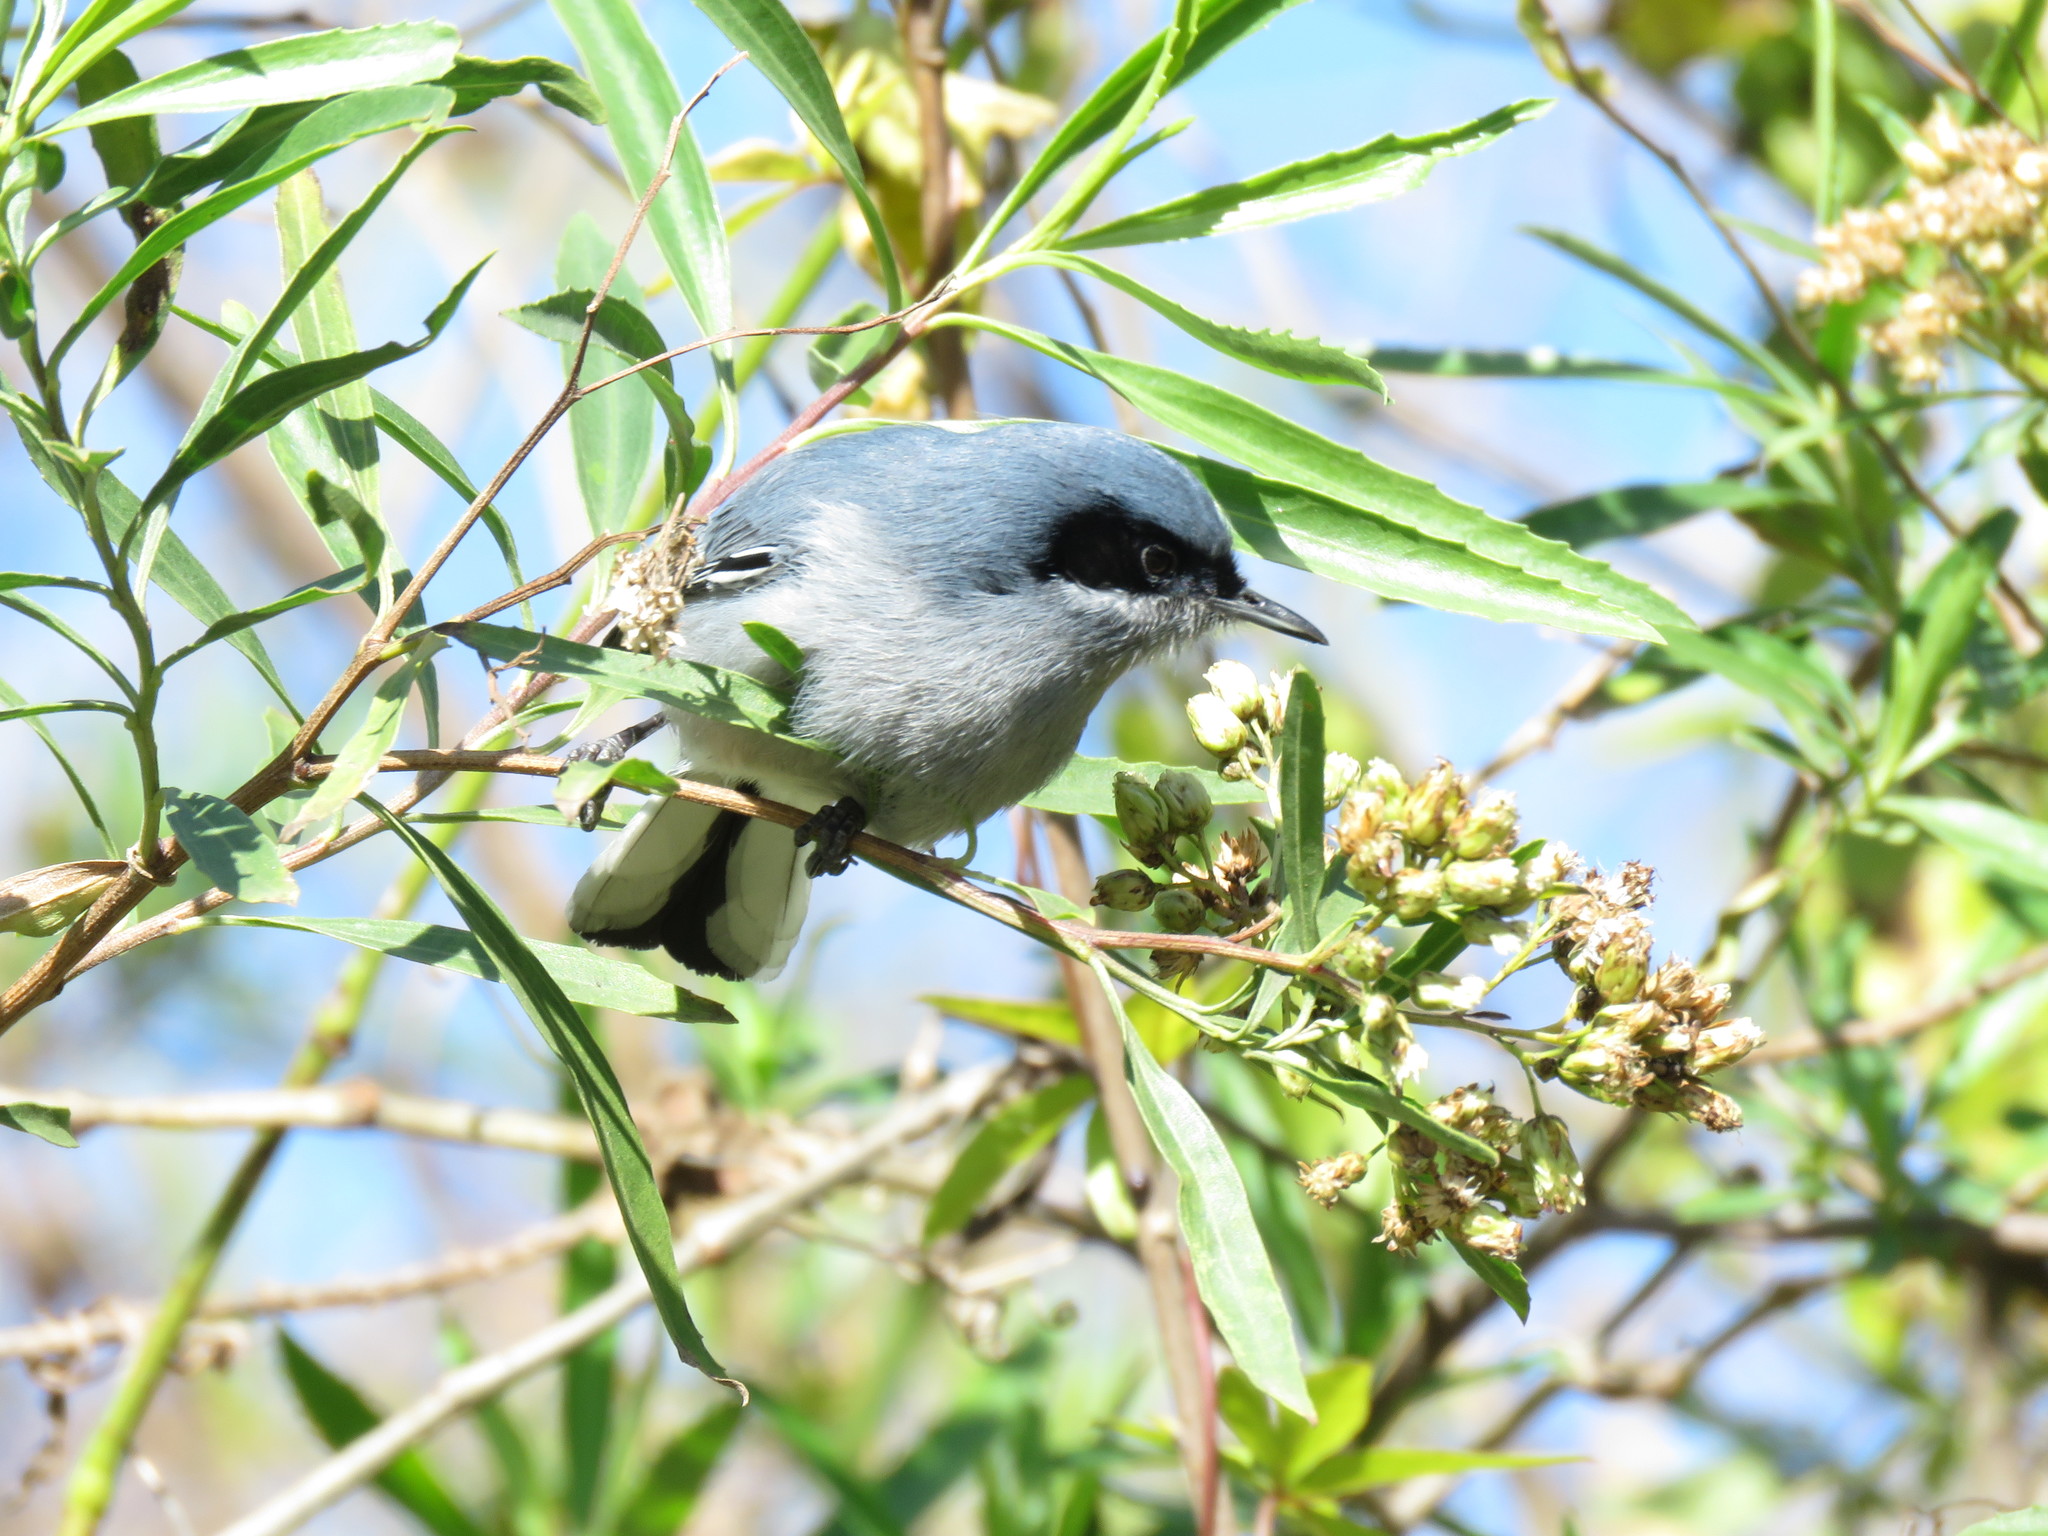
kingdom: Animalia
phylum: Chordata
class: Aves
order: Passeriformes
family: Polioptilidae
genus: Polioptila
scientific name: Polioptila dumicola
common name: Masked gnatcatcher
